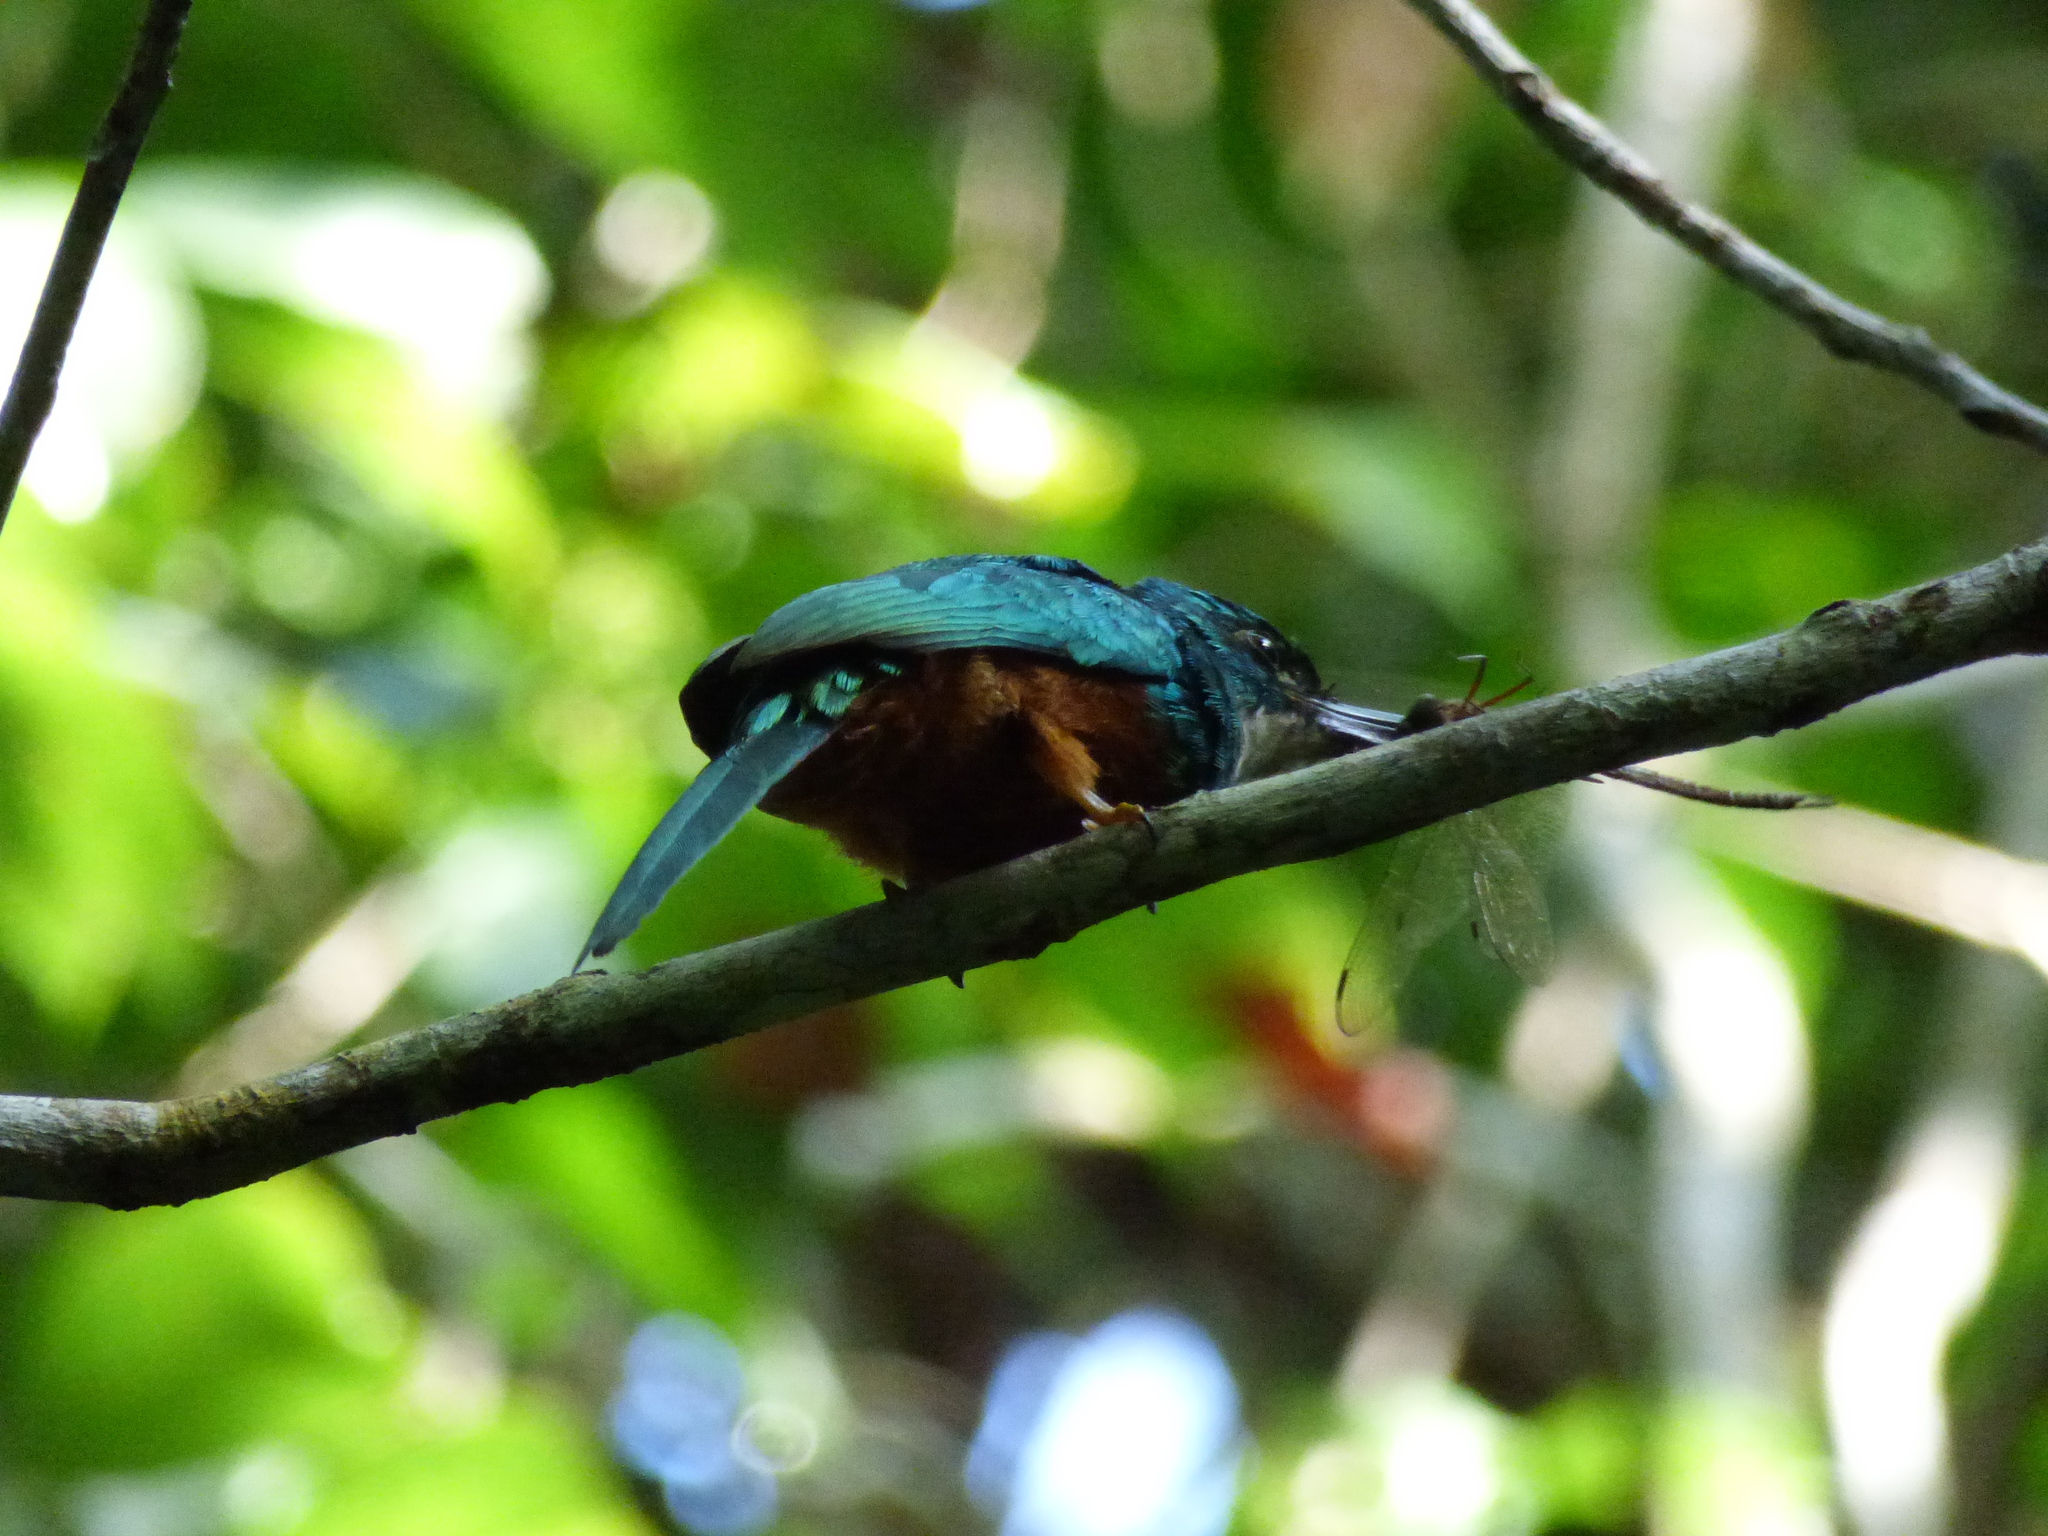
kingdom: Animalia
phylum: Chordata
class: Aves
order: Piciformes
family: Galbulidae
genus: Galbula
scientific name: Galbula ruficauda
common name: Rufous-tailed jacamar
